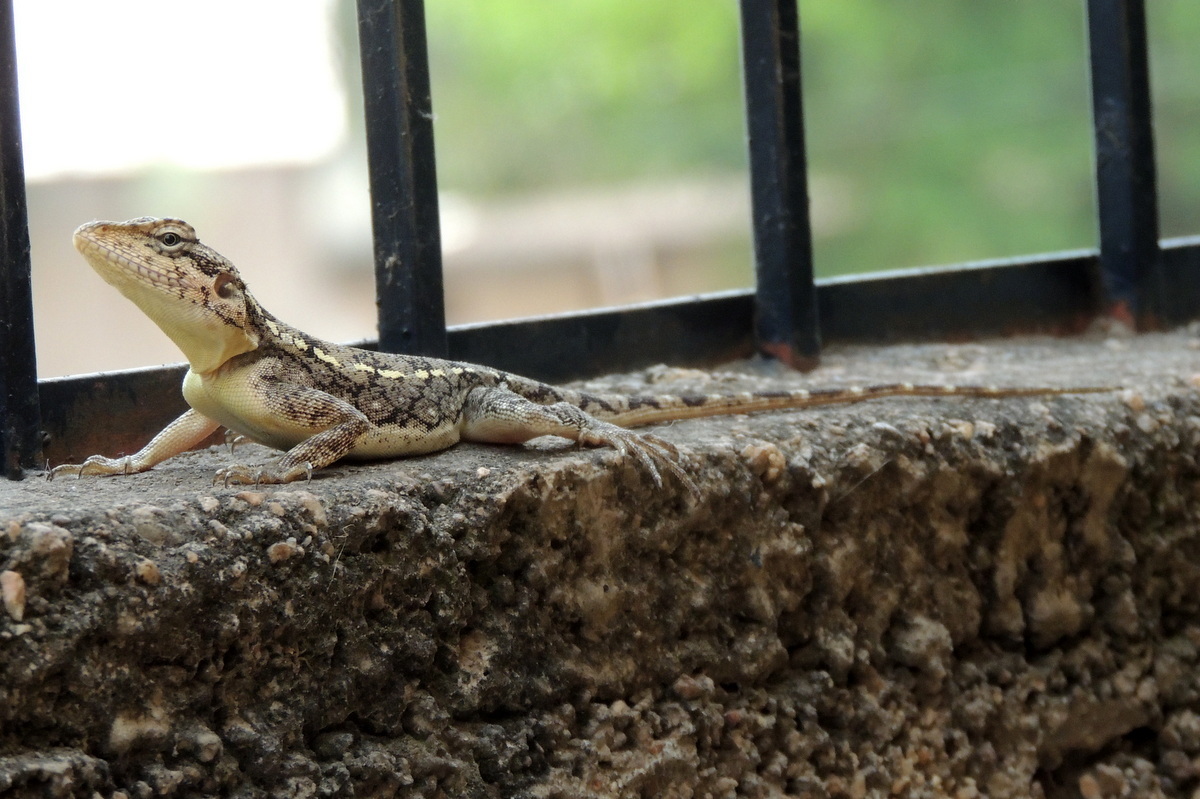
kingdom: Animalia
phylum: Chordata
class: Squamata
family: Agamidae
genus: Psammophilus
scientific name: Psammophilus dorsalis
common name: South indian rock agama
